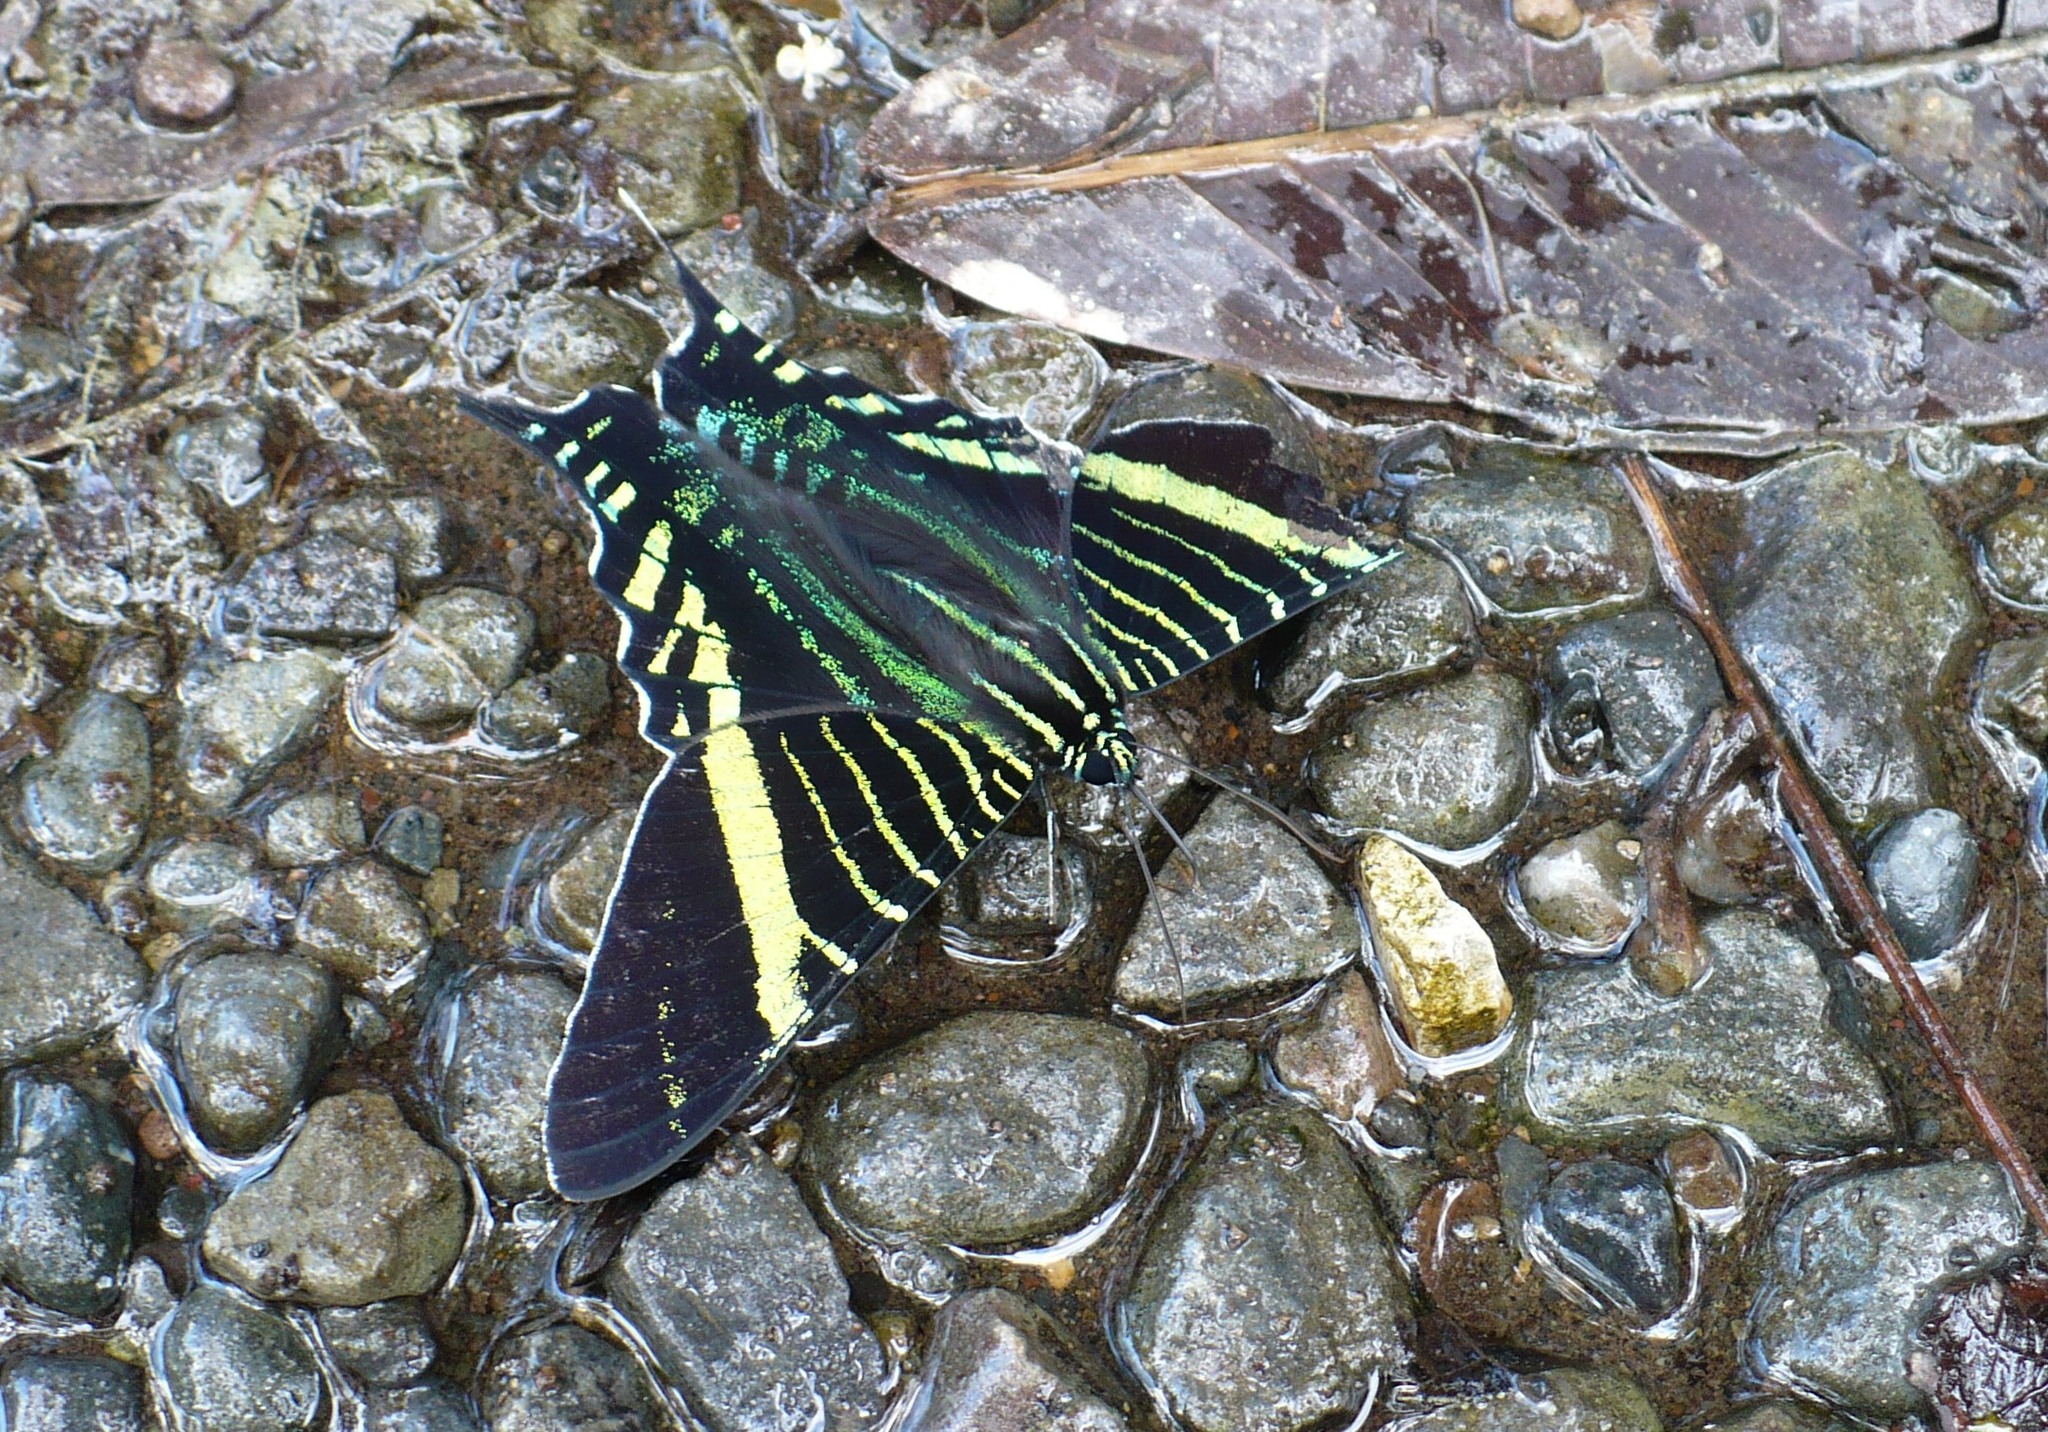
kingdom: Animalia
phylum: Arthropoda
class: Insecta
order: Lepidoptera
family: Uraniidae
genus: Urania
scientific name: Urania fulgens
